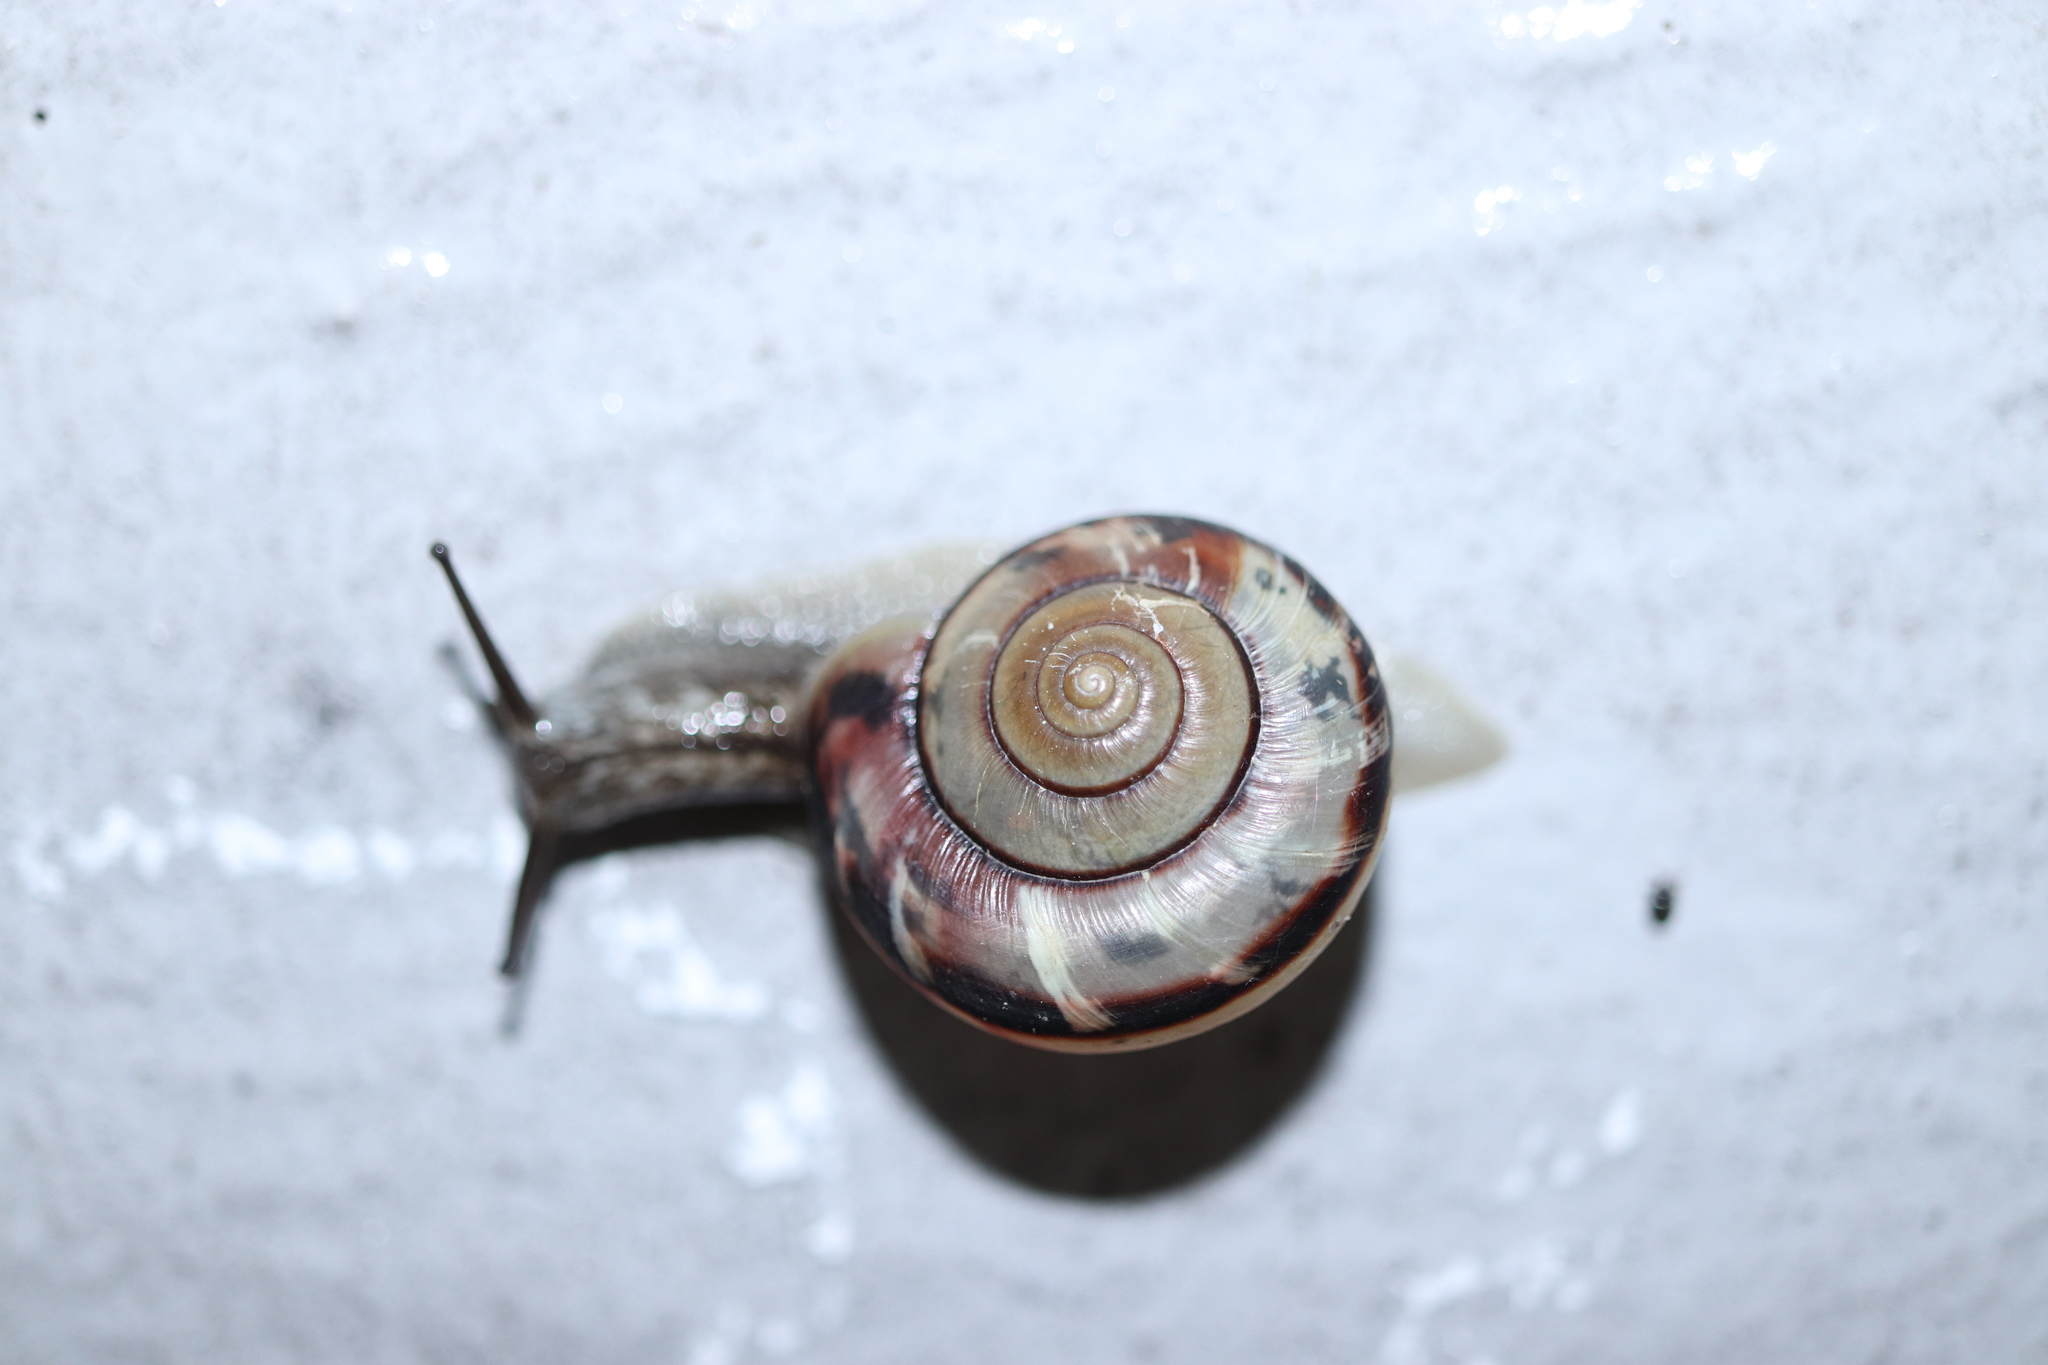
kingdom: Animalia
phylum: Mollusca
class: Gastropoda
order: Stylommatophora
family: Camaenidae
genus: Euhadra
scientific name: Euhadra peliomphala
